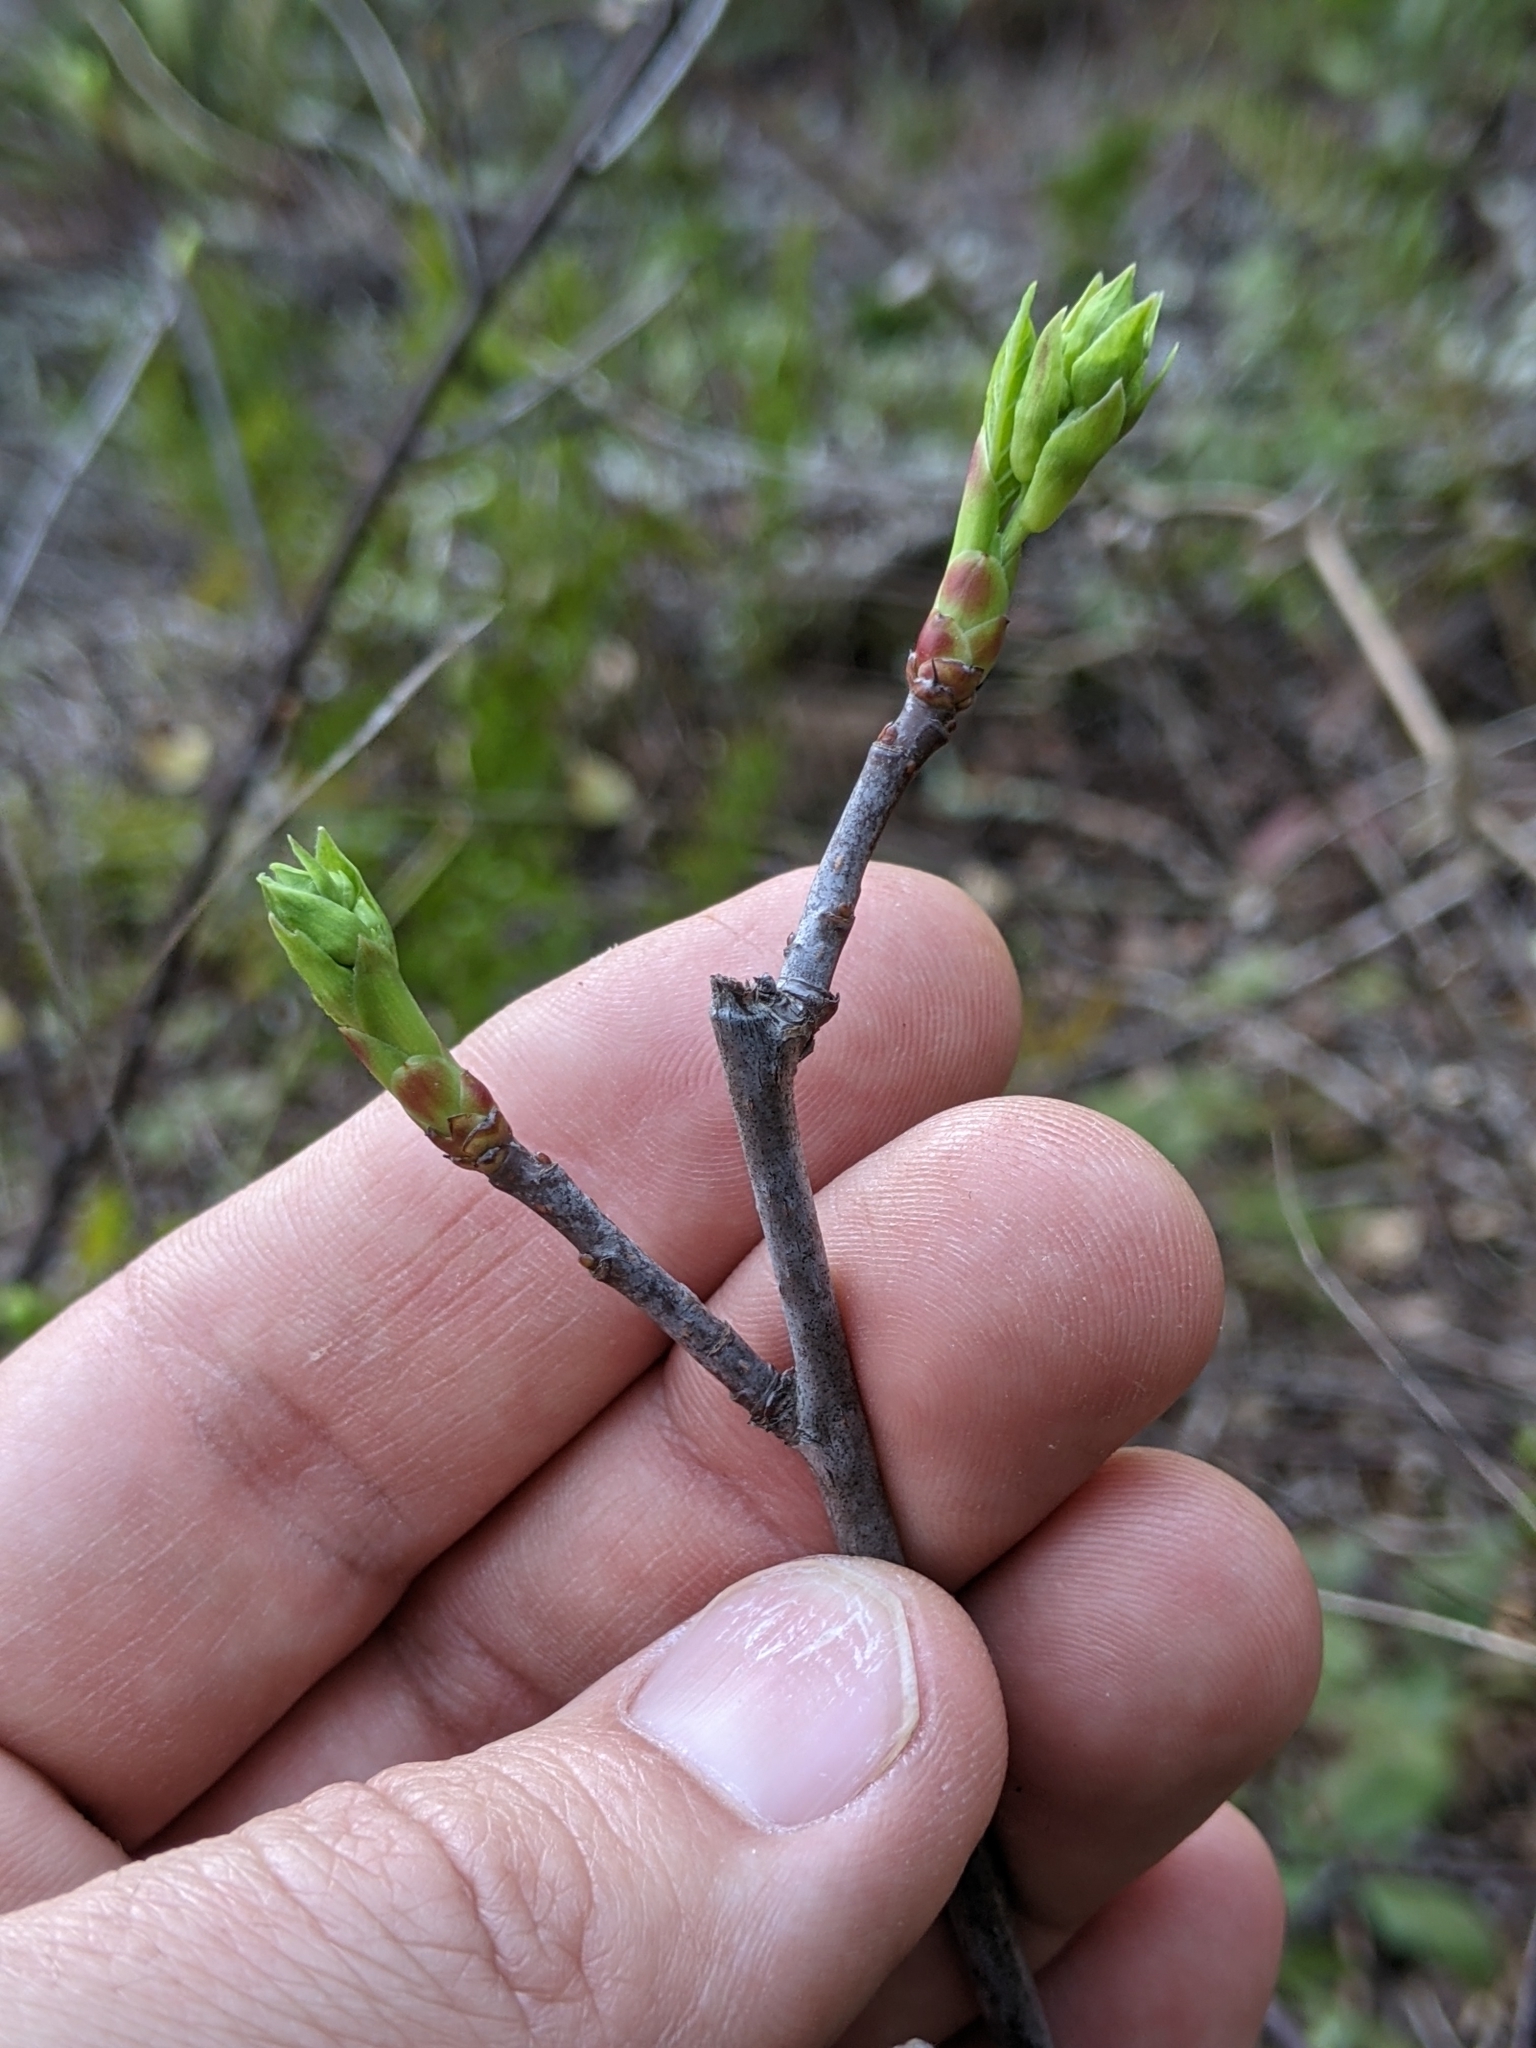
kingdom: Plantae
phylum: Tracheophyta
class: Magnoliopsida
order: Rosales
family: Rosaceae
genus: Oemleria
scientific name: Oemleria cerasiformis
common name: Osoberry
